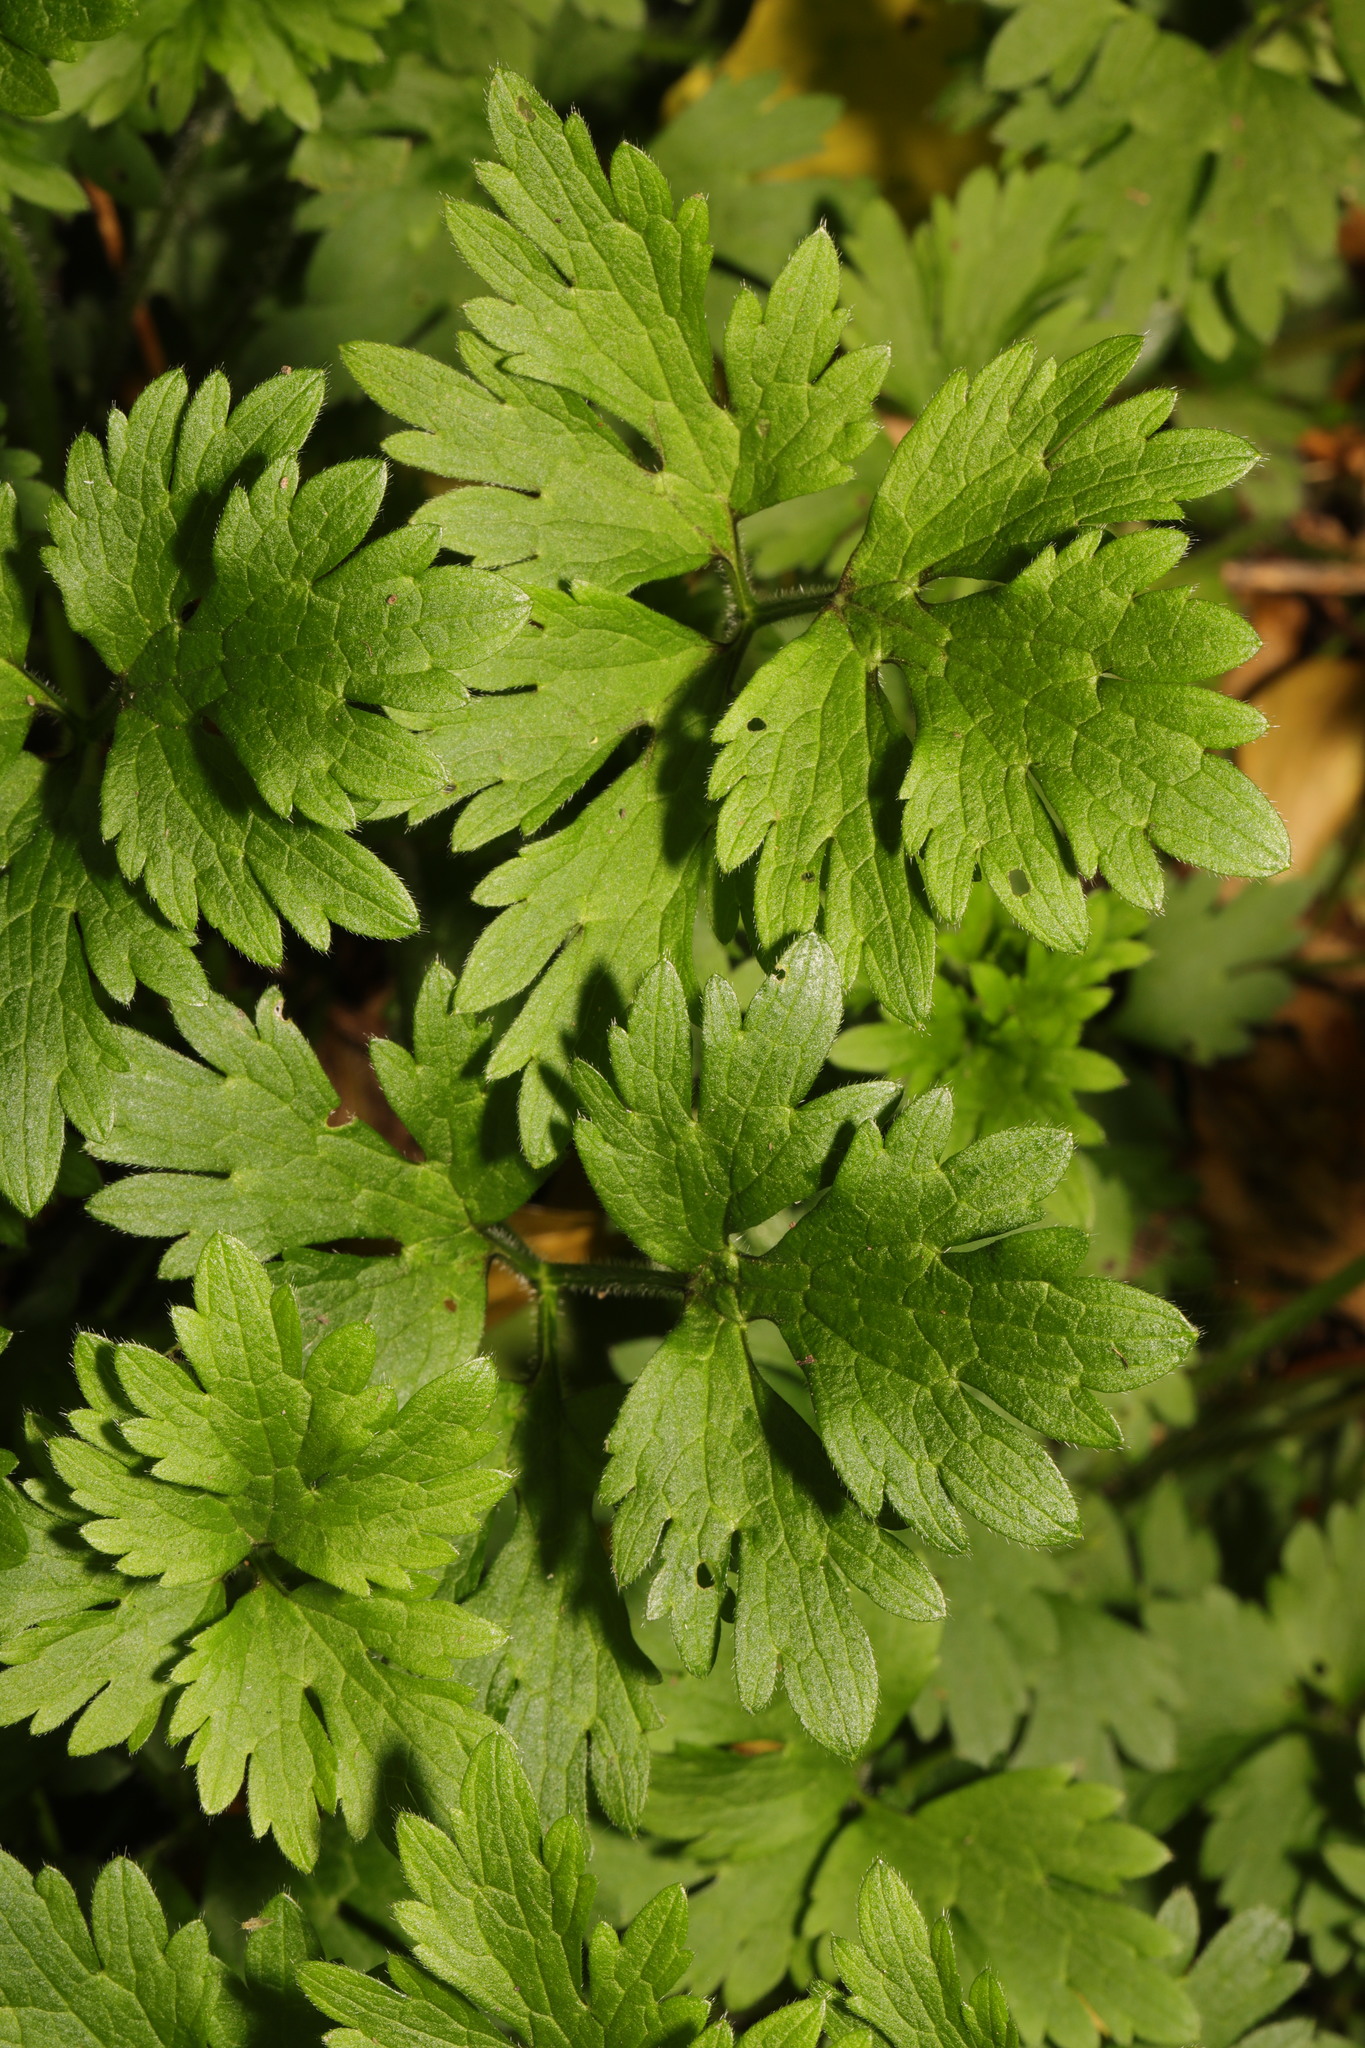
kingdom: Plantae
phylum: Tracheophyta
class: Magnoliopsida
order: Ranunculales
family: Ranunculaceae
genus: Ranunculus
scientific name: Ranunculus repens
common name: Creeping buttercup
